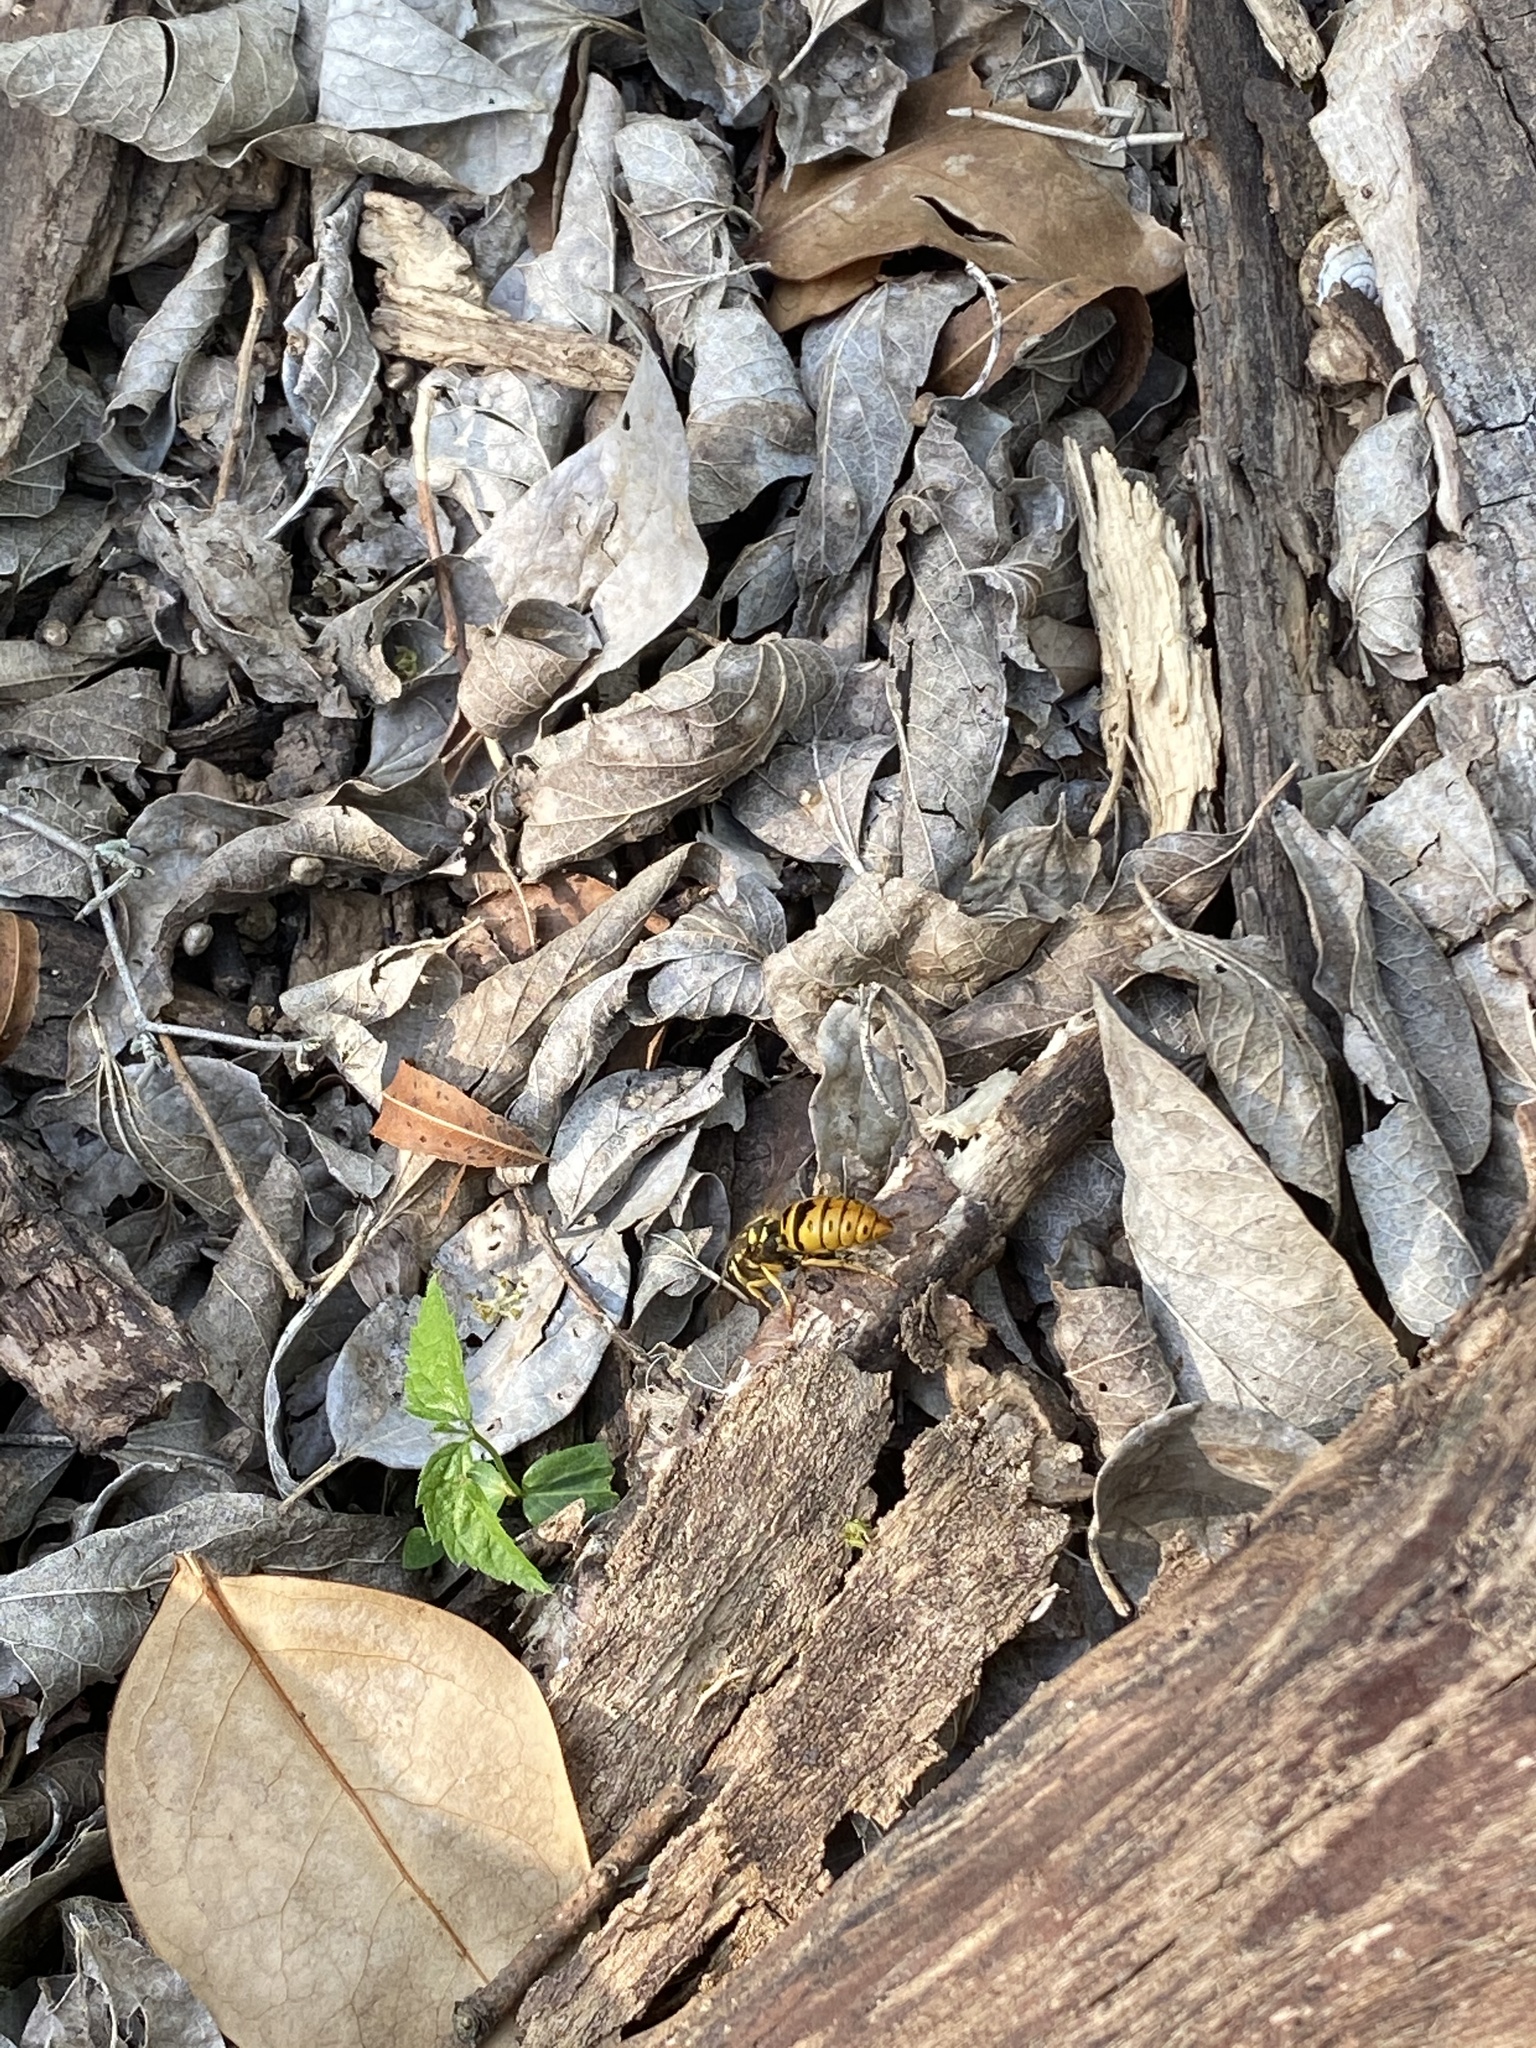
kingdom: Animalia
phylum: Arthropoda
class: Insecta
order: Hymenoptera
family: Vespidae
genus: Vespula
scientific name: Vespula maculifrons
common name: Eastern yellowjacket
